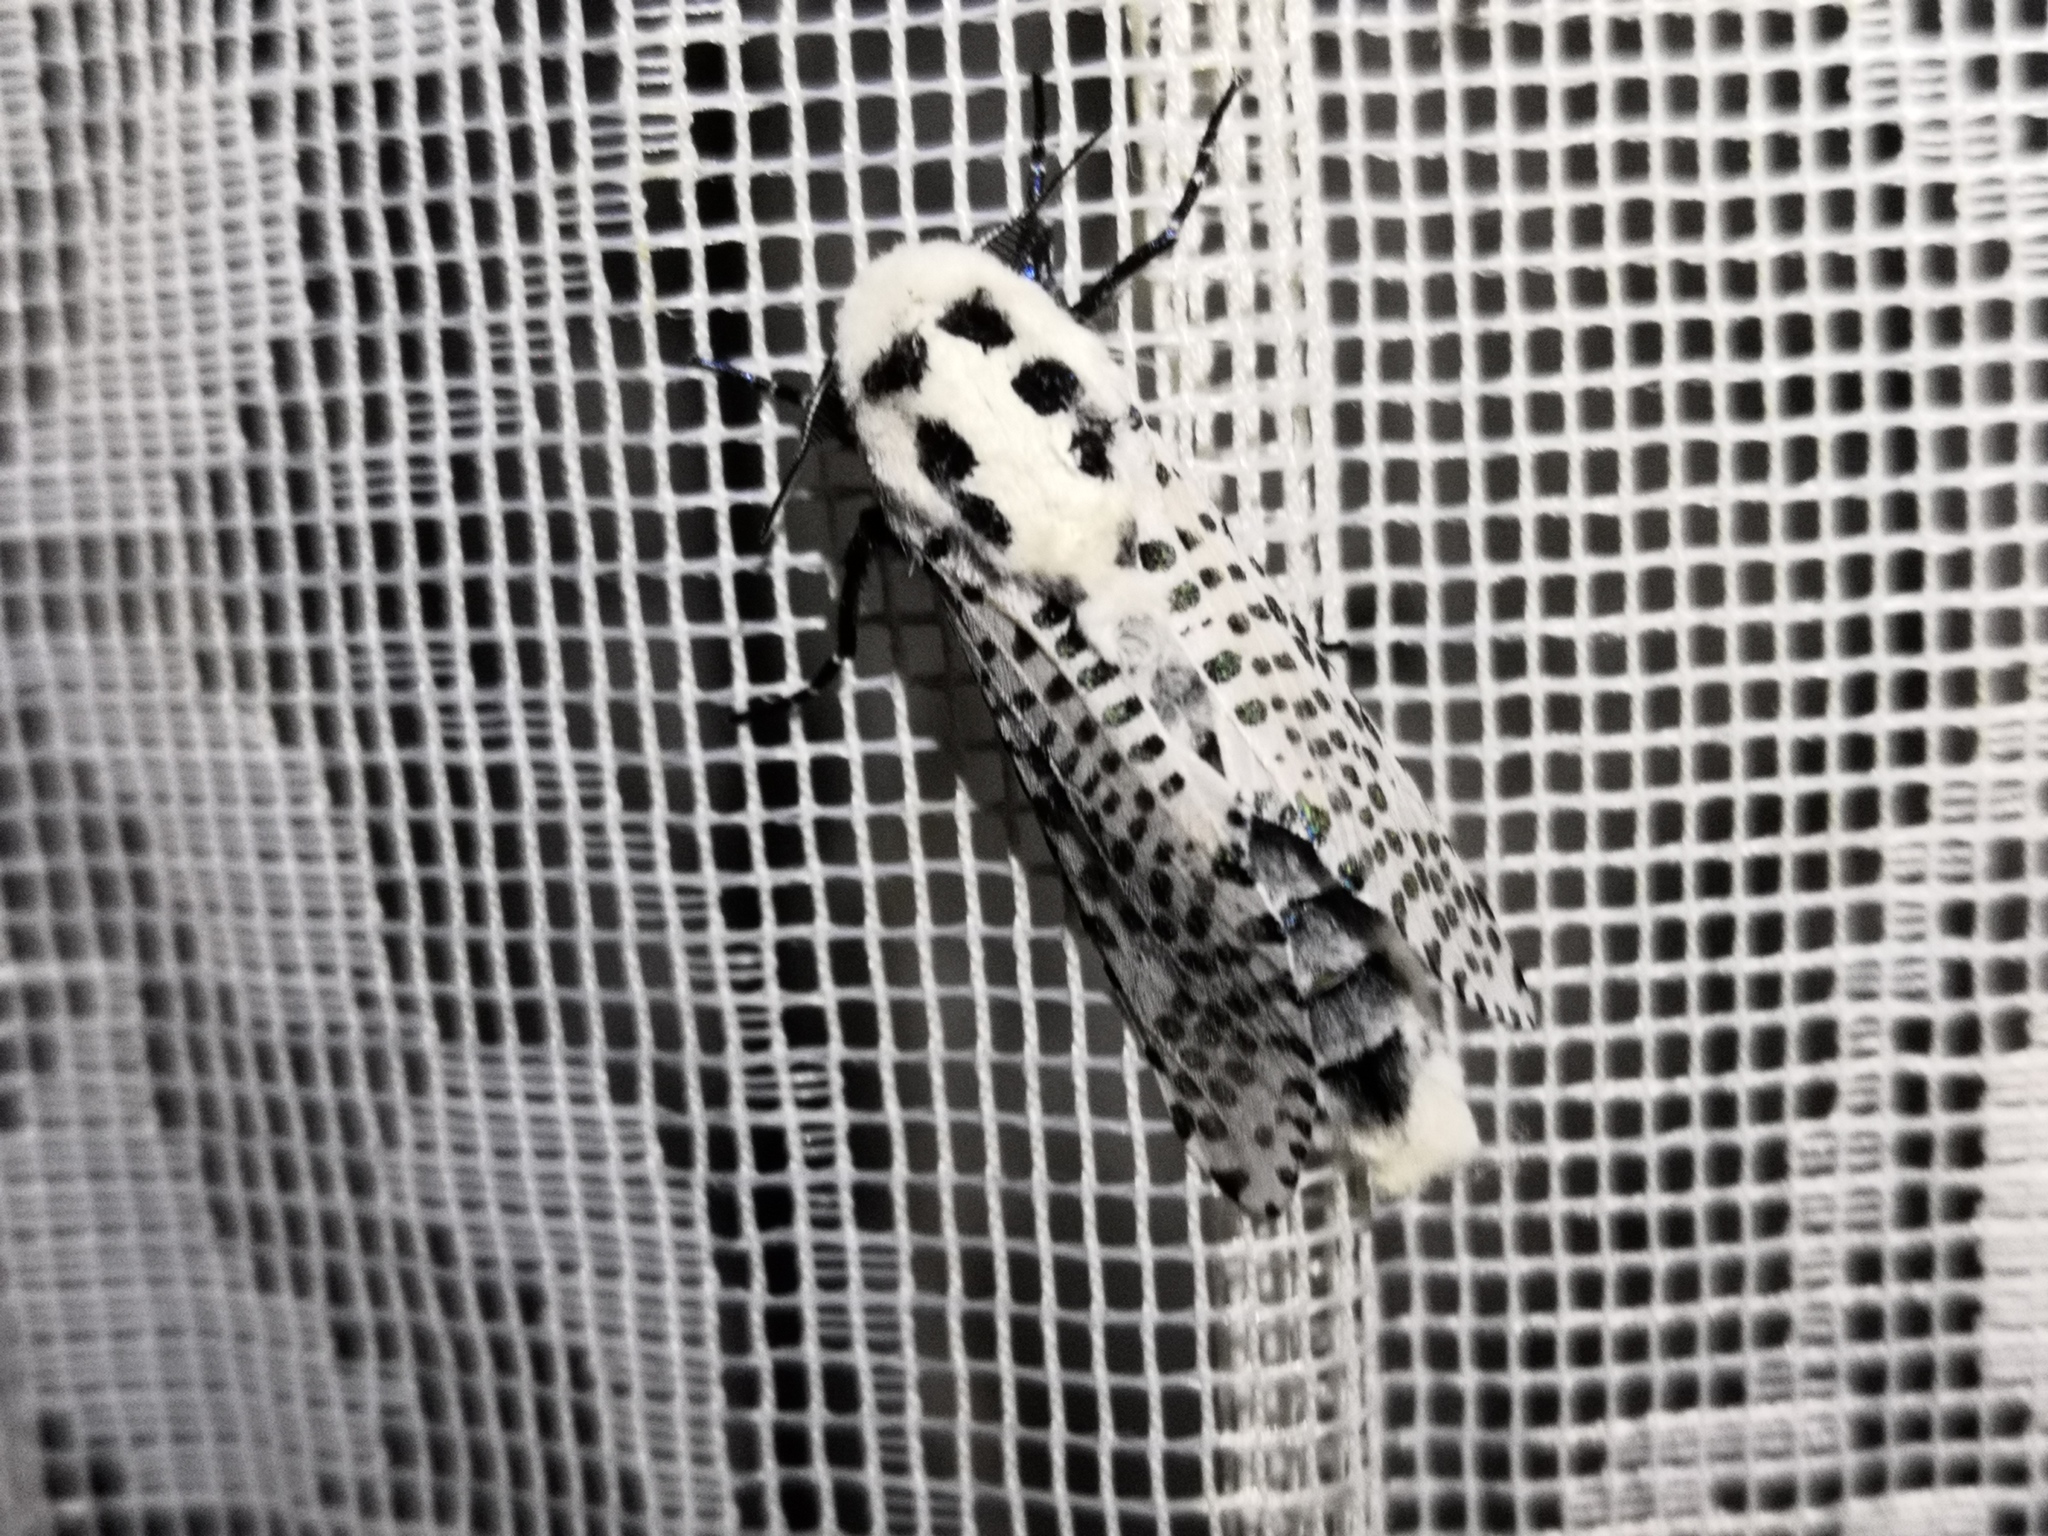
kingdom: Animalia
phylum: Arthropoda
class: Insecta
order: Lepidoptera
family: Cossidae
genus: Zeuzera
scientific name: Zeuzera pyrina
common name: Leopard moth
